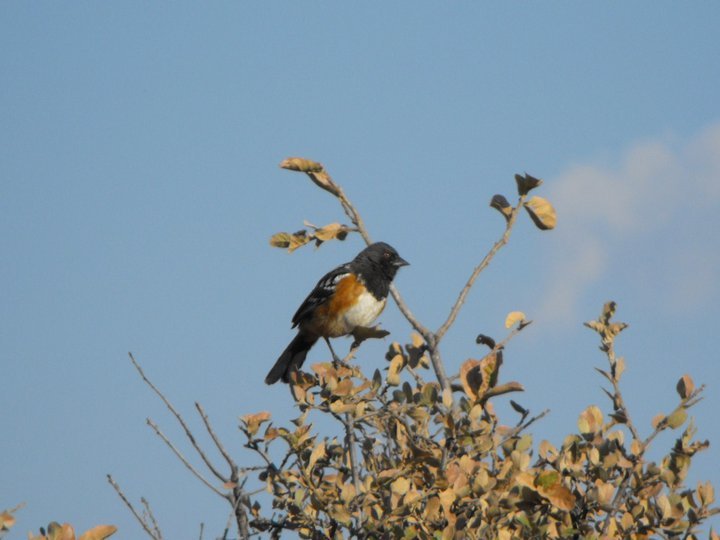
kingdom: Animalia
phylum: Chordata
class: Aves
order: Passeriformes
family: Passerellidae
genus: Pipilo
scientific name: Pipilo maculatus
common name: Spotted towhee
